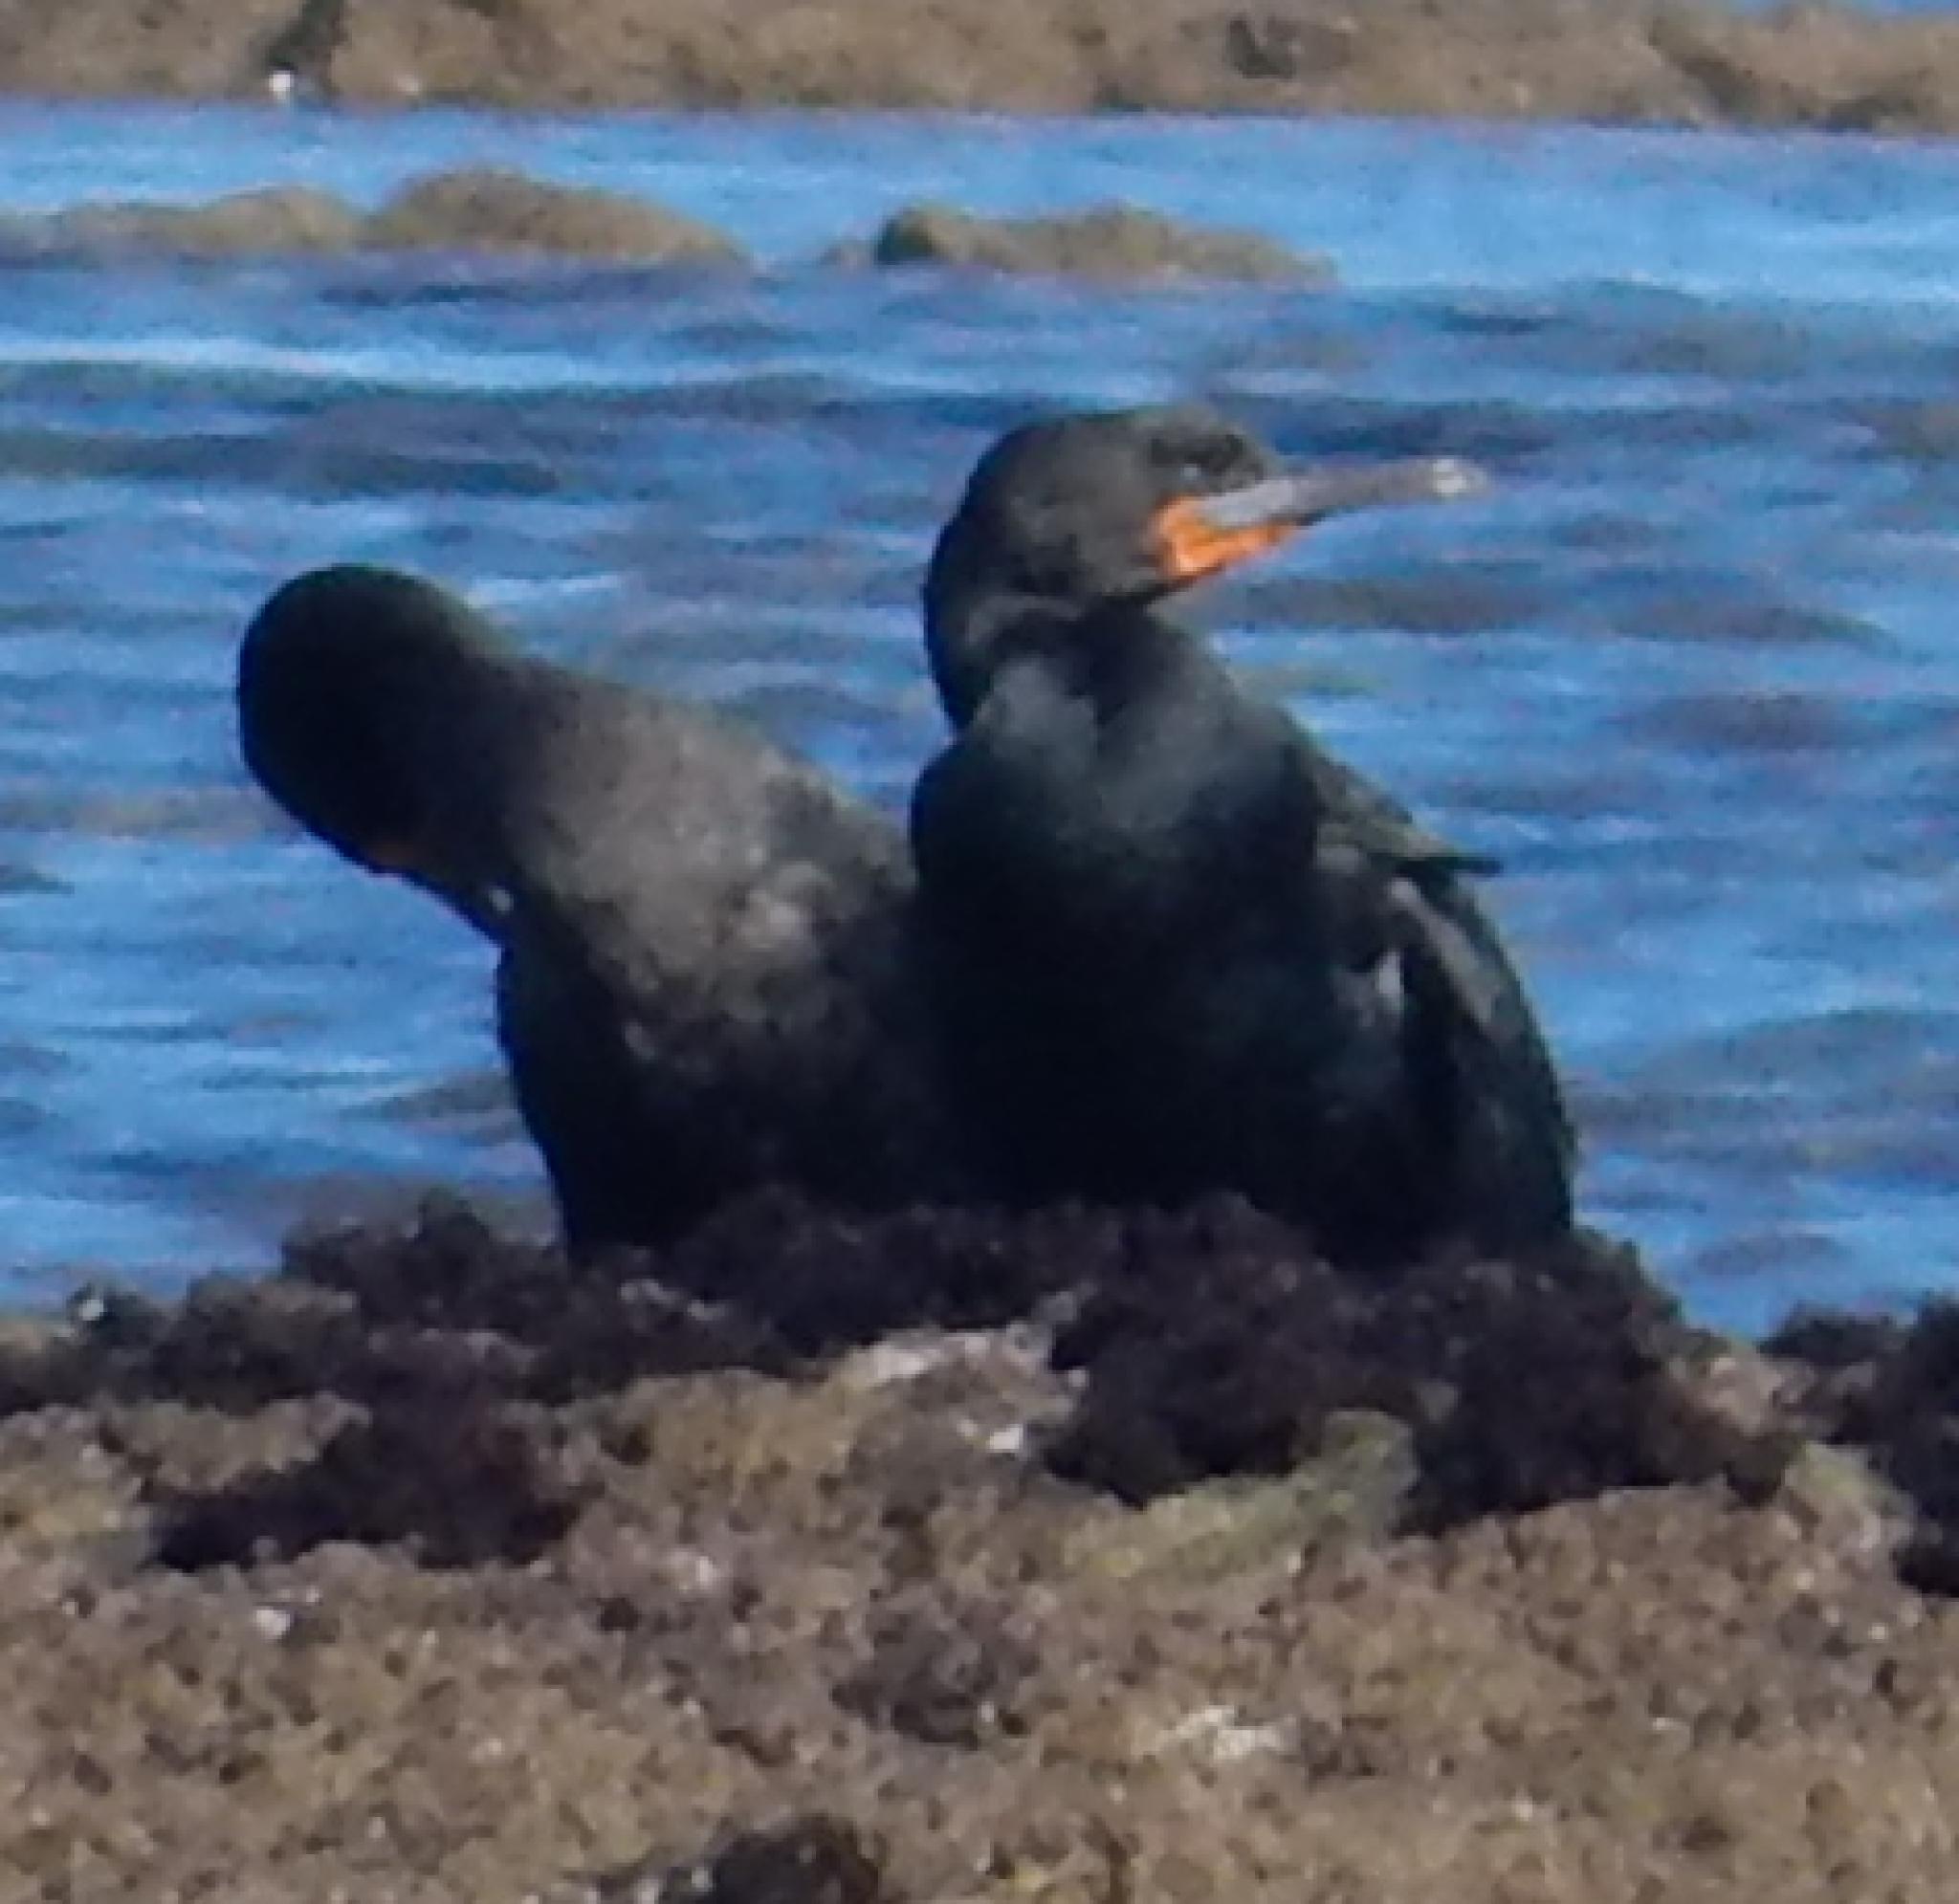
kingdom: Animalia
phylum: Chordata
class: Aves
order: Suliformes
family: Phalacrocoracidae
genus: Phalacrocorax
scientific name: Phalacrocorax capensis
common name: Cape cormorant
